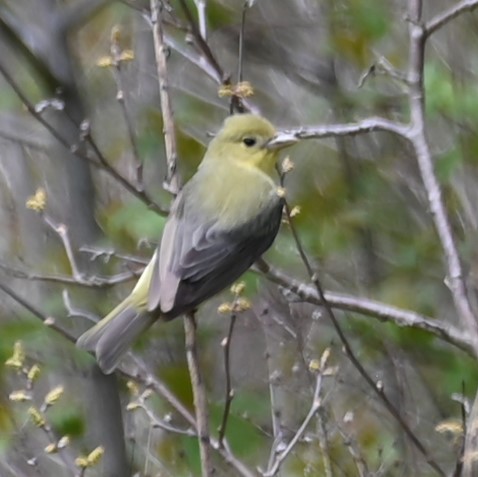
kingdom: Animalia
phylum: Chordata
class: Aves
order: Passeriformes
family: Cardinalidae
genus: Piranga
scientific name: Piranga olivacea
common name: Scarlet tanager
